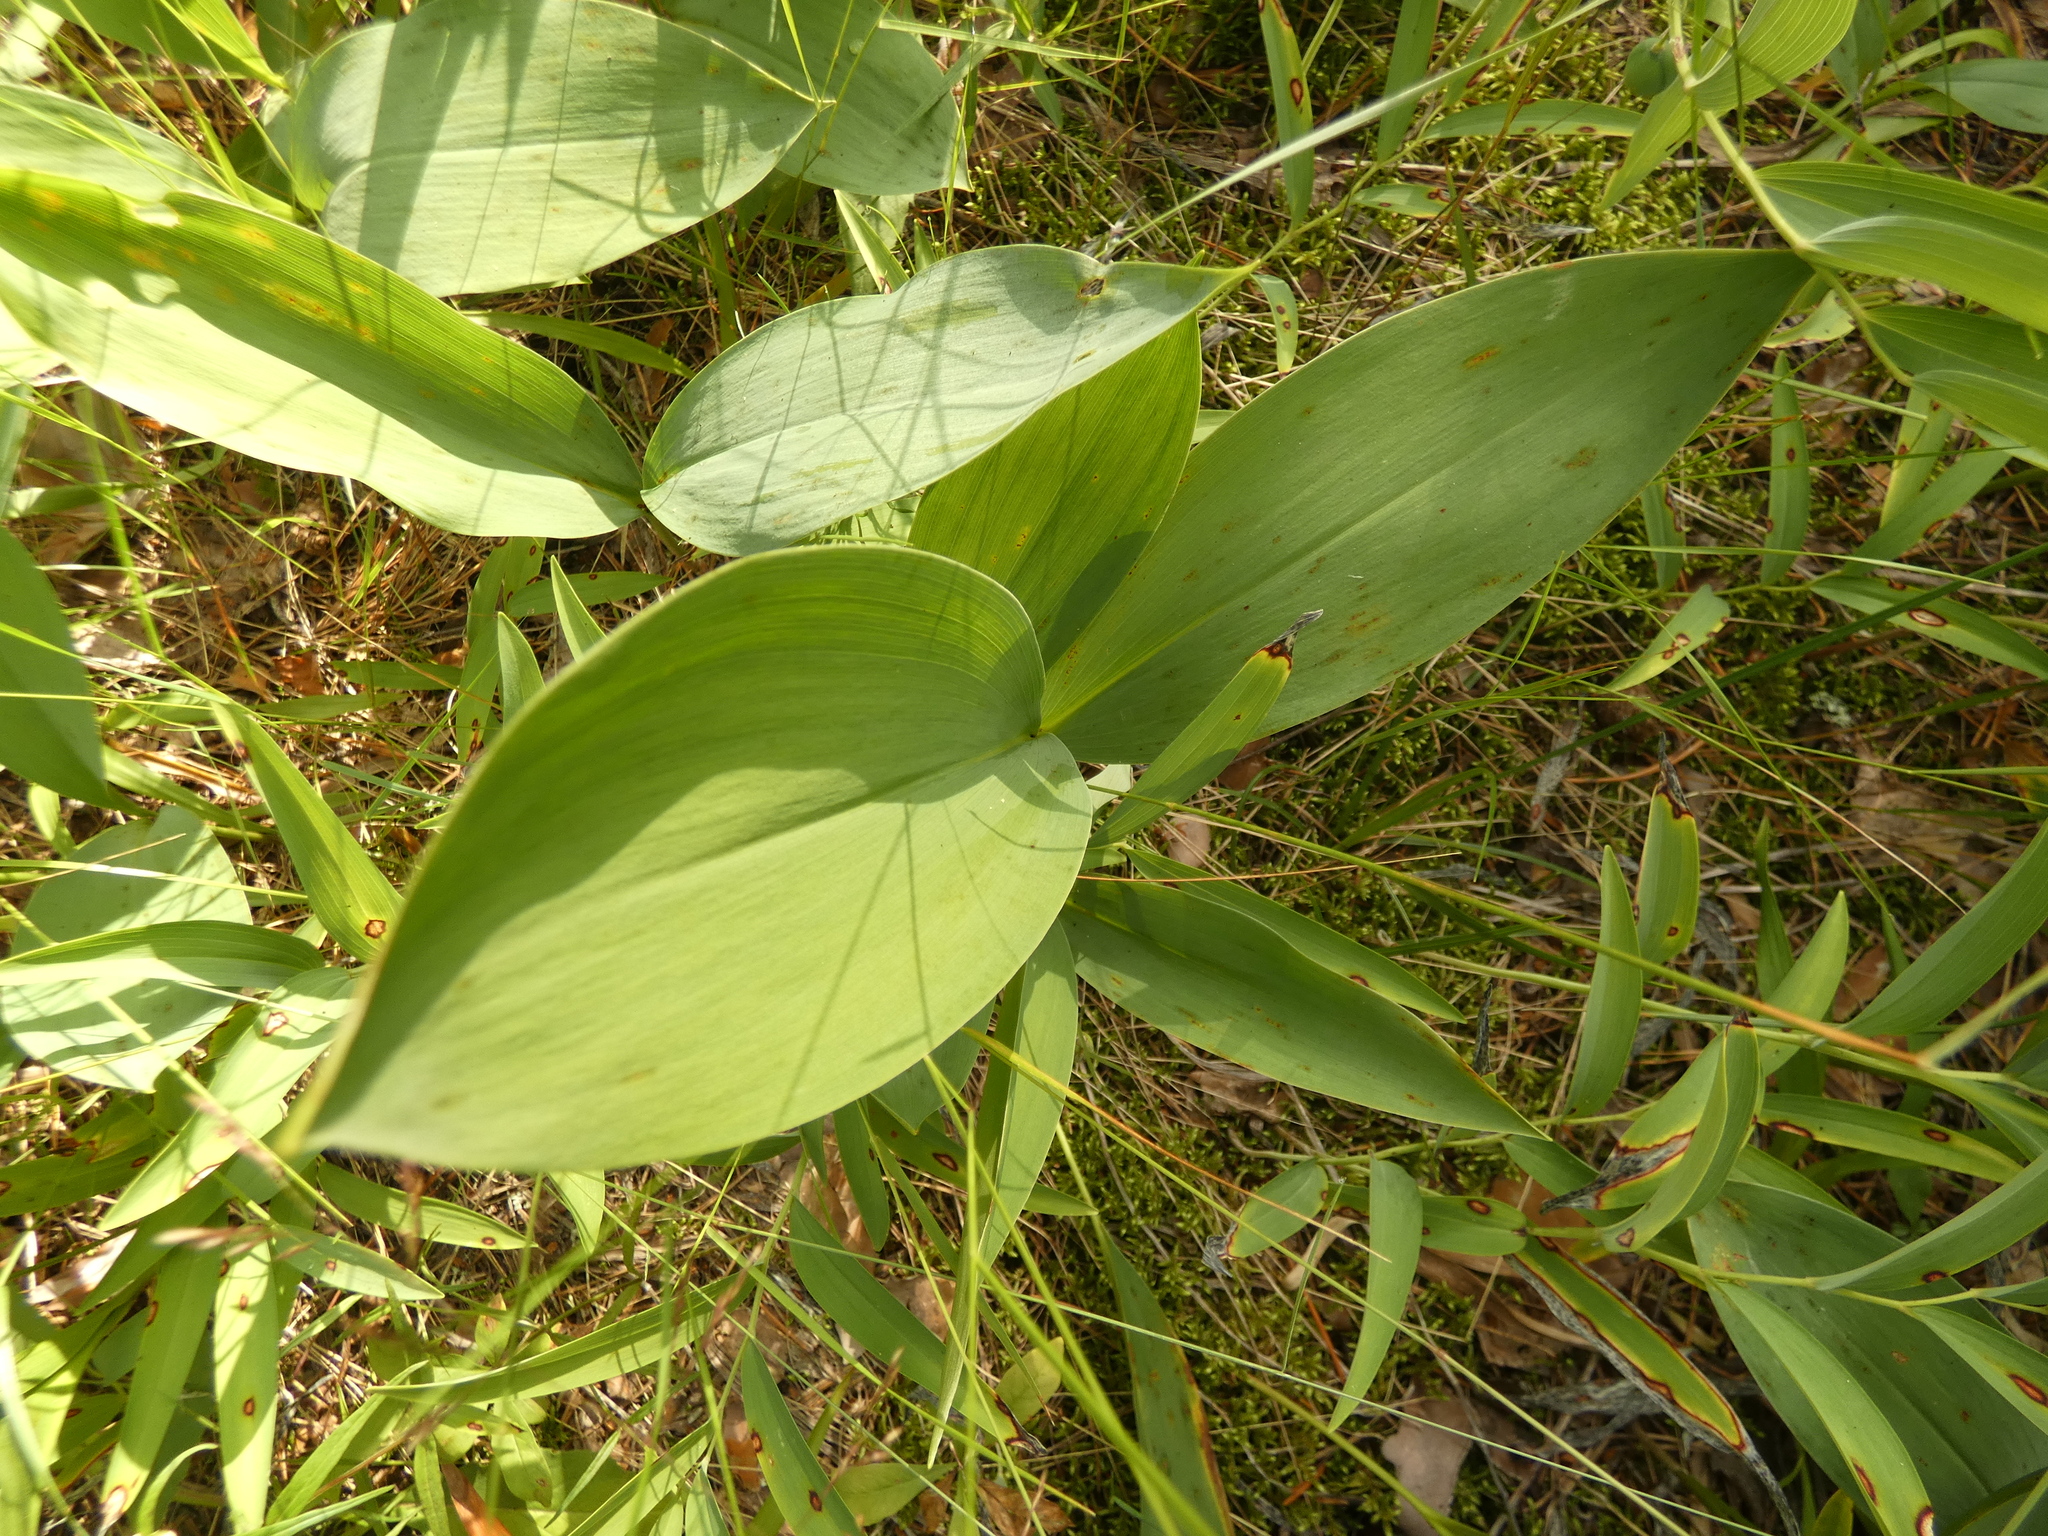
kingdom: Plantae
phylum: Tracheophyta
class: Liliopsida
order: Asparagales
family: Asparagaceae
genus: Convallaria
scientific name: Convallaria majalis
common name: Lily-of-the-valley
